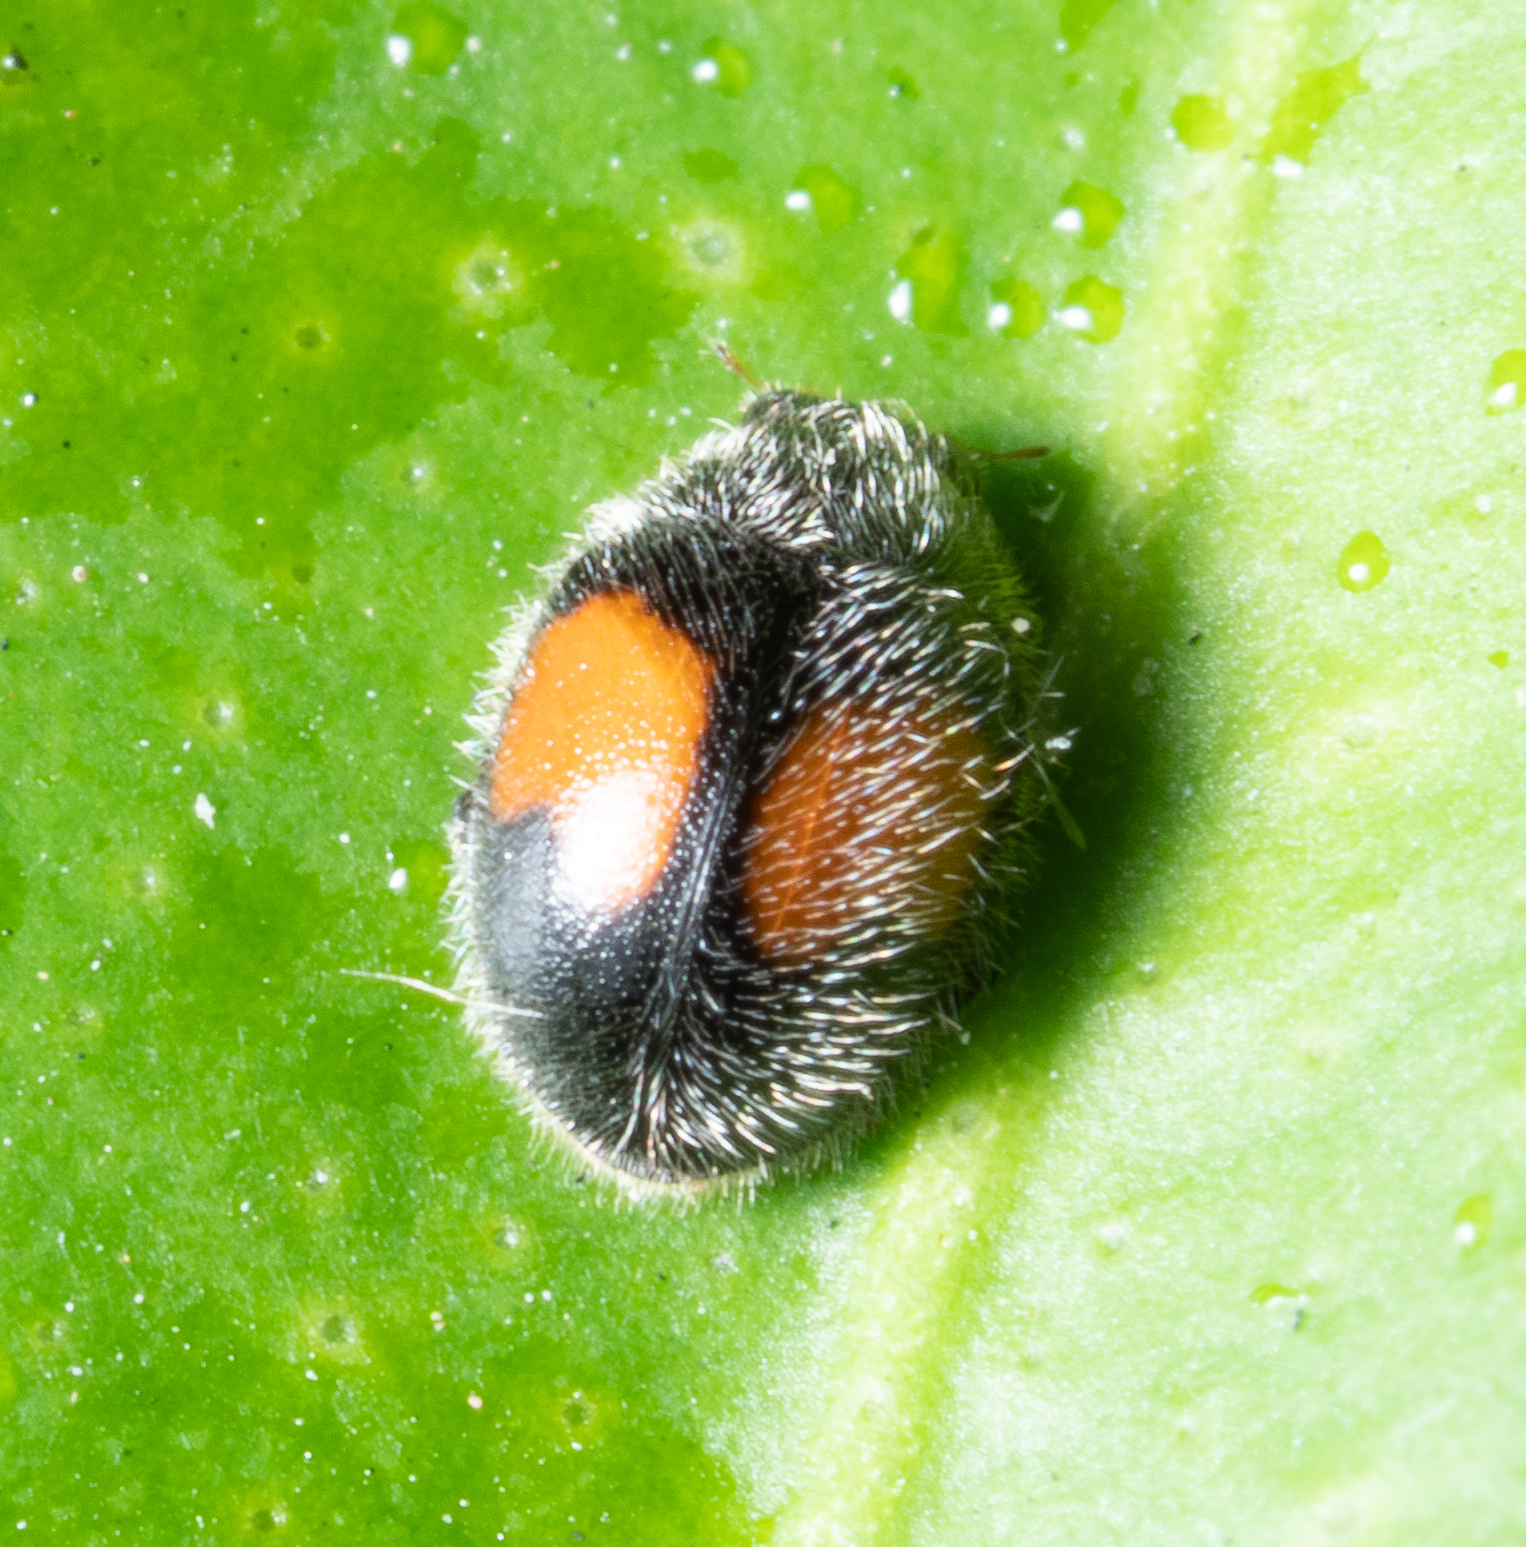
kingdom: Animalia
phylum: Arthropoda
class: Insecta
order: Coleoptera
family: Coccinellidae
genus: Scymnus
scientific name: Scymnus notescens
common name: Minute two-spotted ladybird beetle
